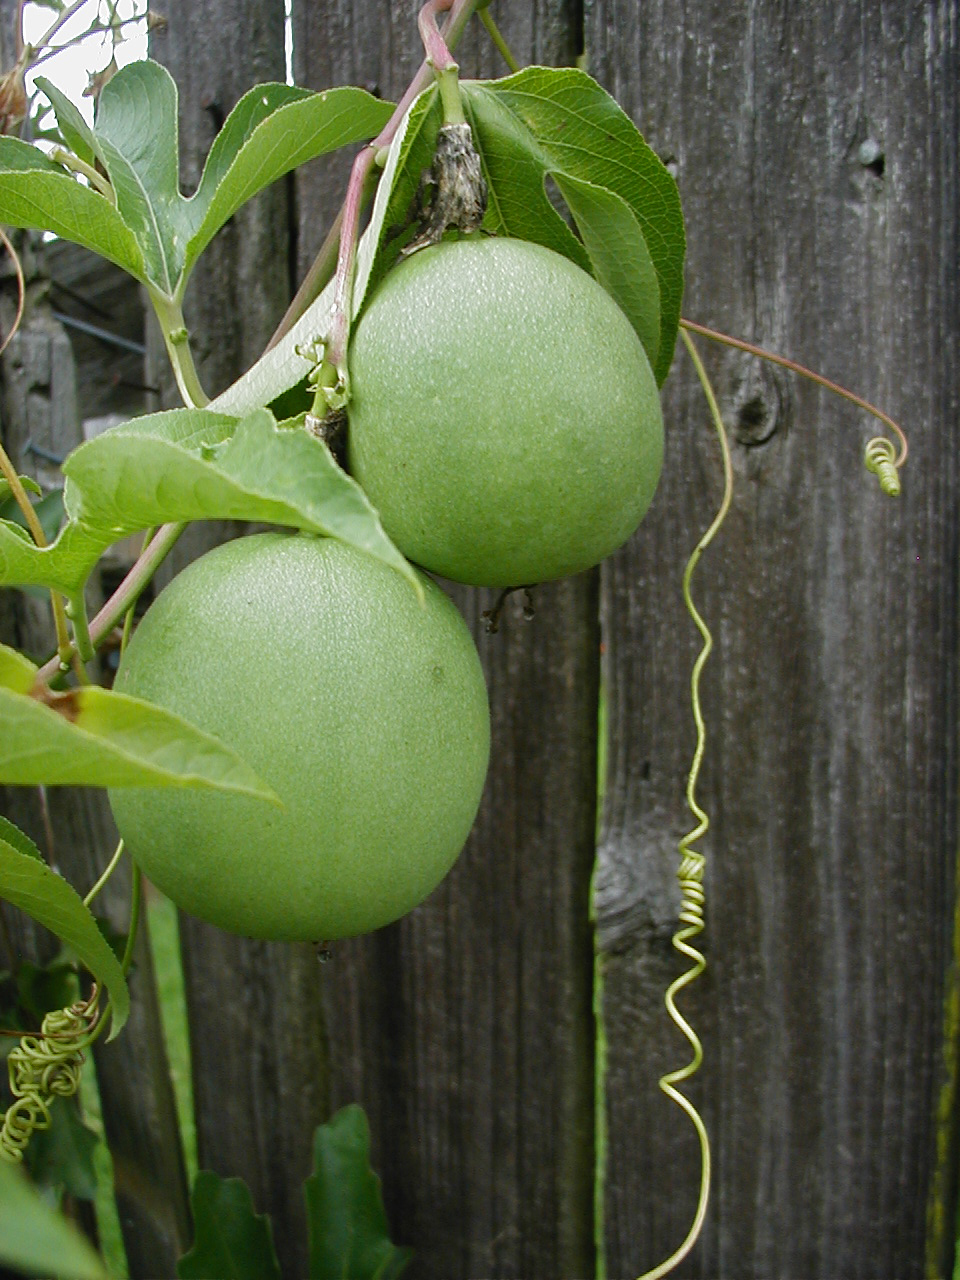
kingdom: Plantae
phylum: Tracheophyta
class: Magnoliopsida
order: Malpighiales
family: Passifloraceae
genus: Passiflora
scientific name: Passiflora incarnata
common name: Apricot-vine
